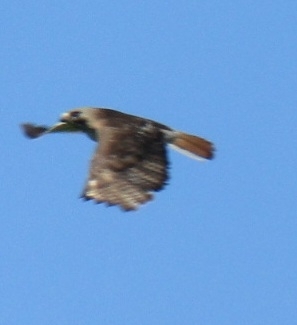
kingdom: Animalia
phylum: Chordata
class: Aves
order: Accipitriformes
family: Accipitridae
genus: Buteo
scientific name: Buteo jamaicensis
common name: Red-tailed hawk
